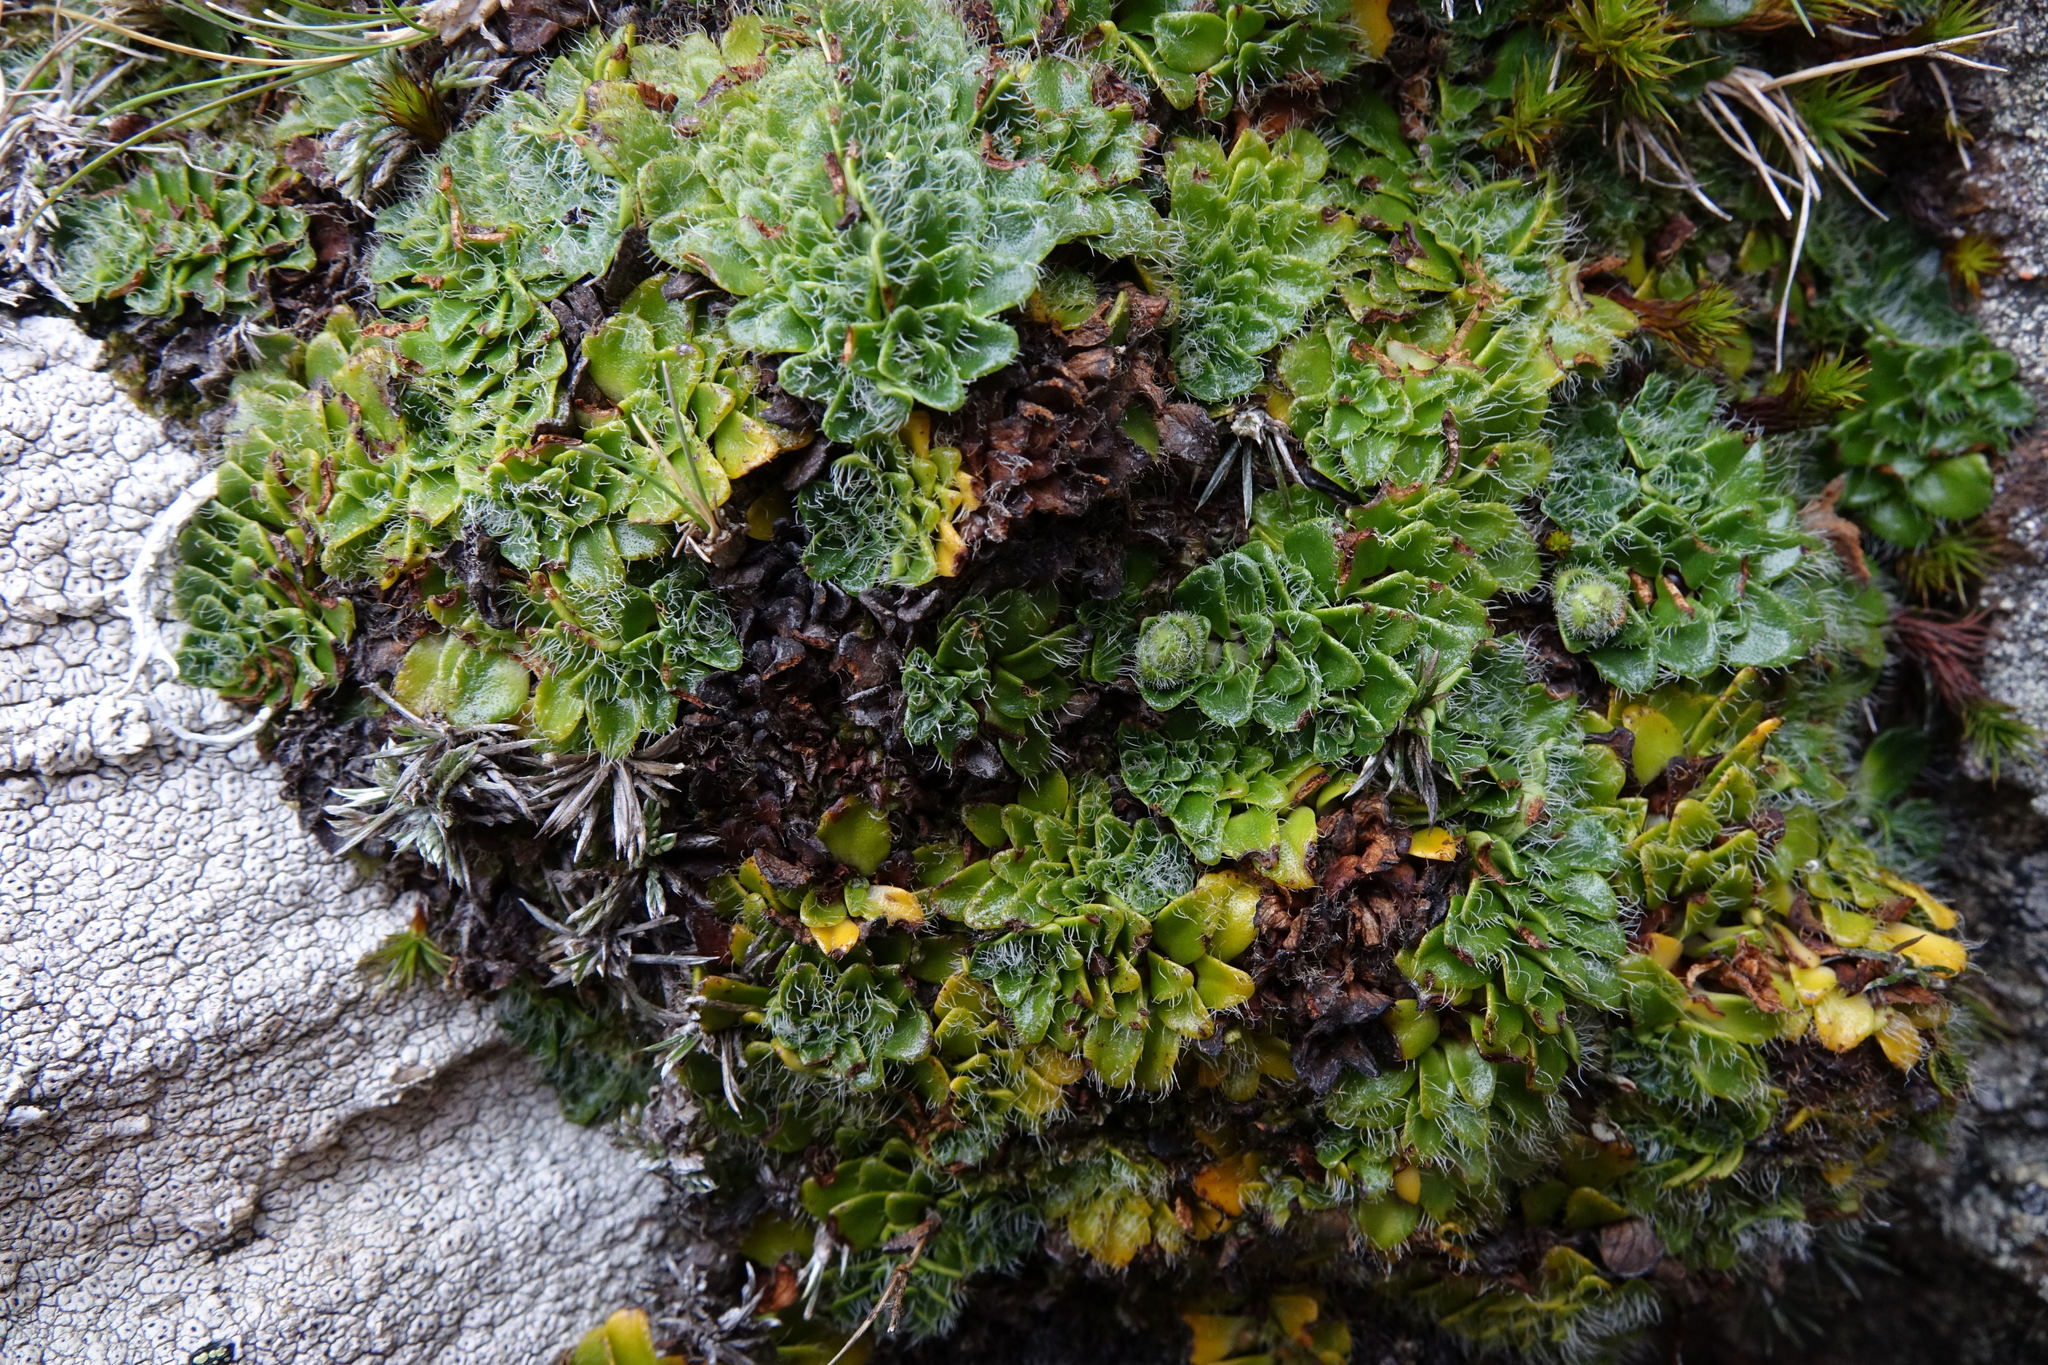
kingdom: Plantae
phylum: Tracheophyta
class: Magnoliopsida
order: Lamiales
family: Plantaginaceae
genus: Ourisia
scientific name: Ourisia glandulosa
